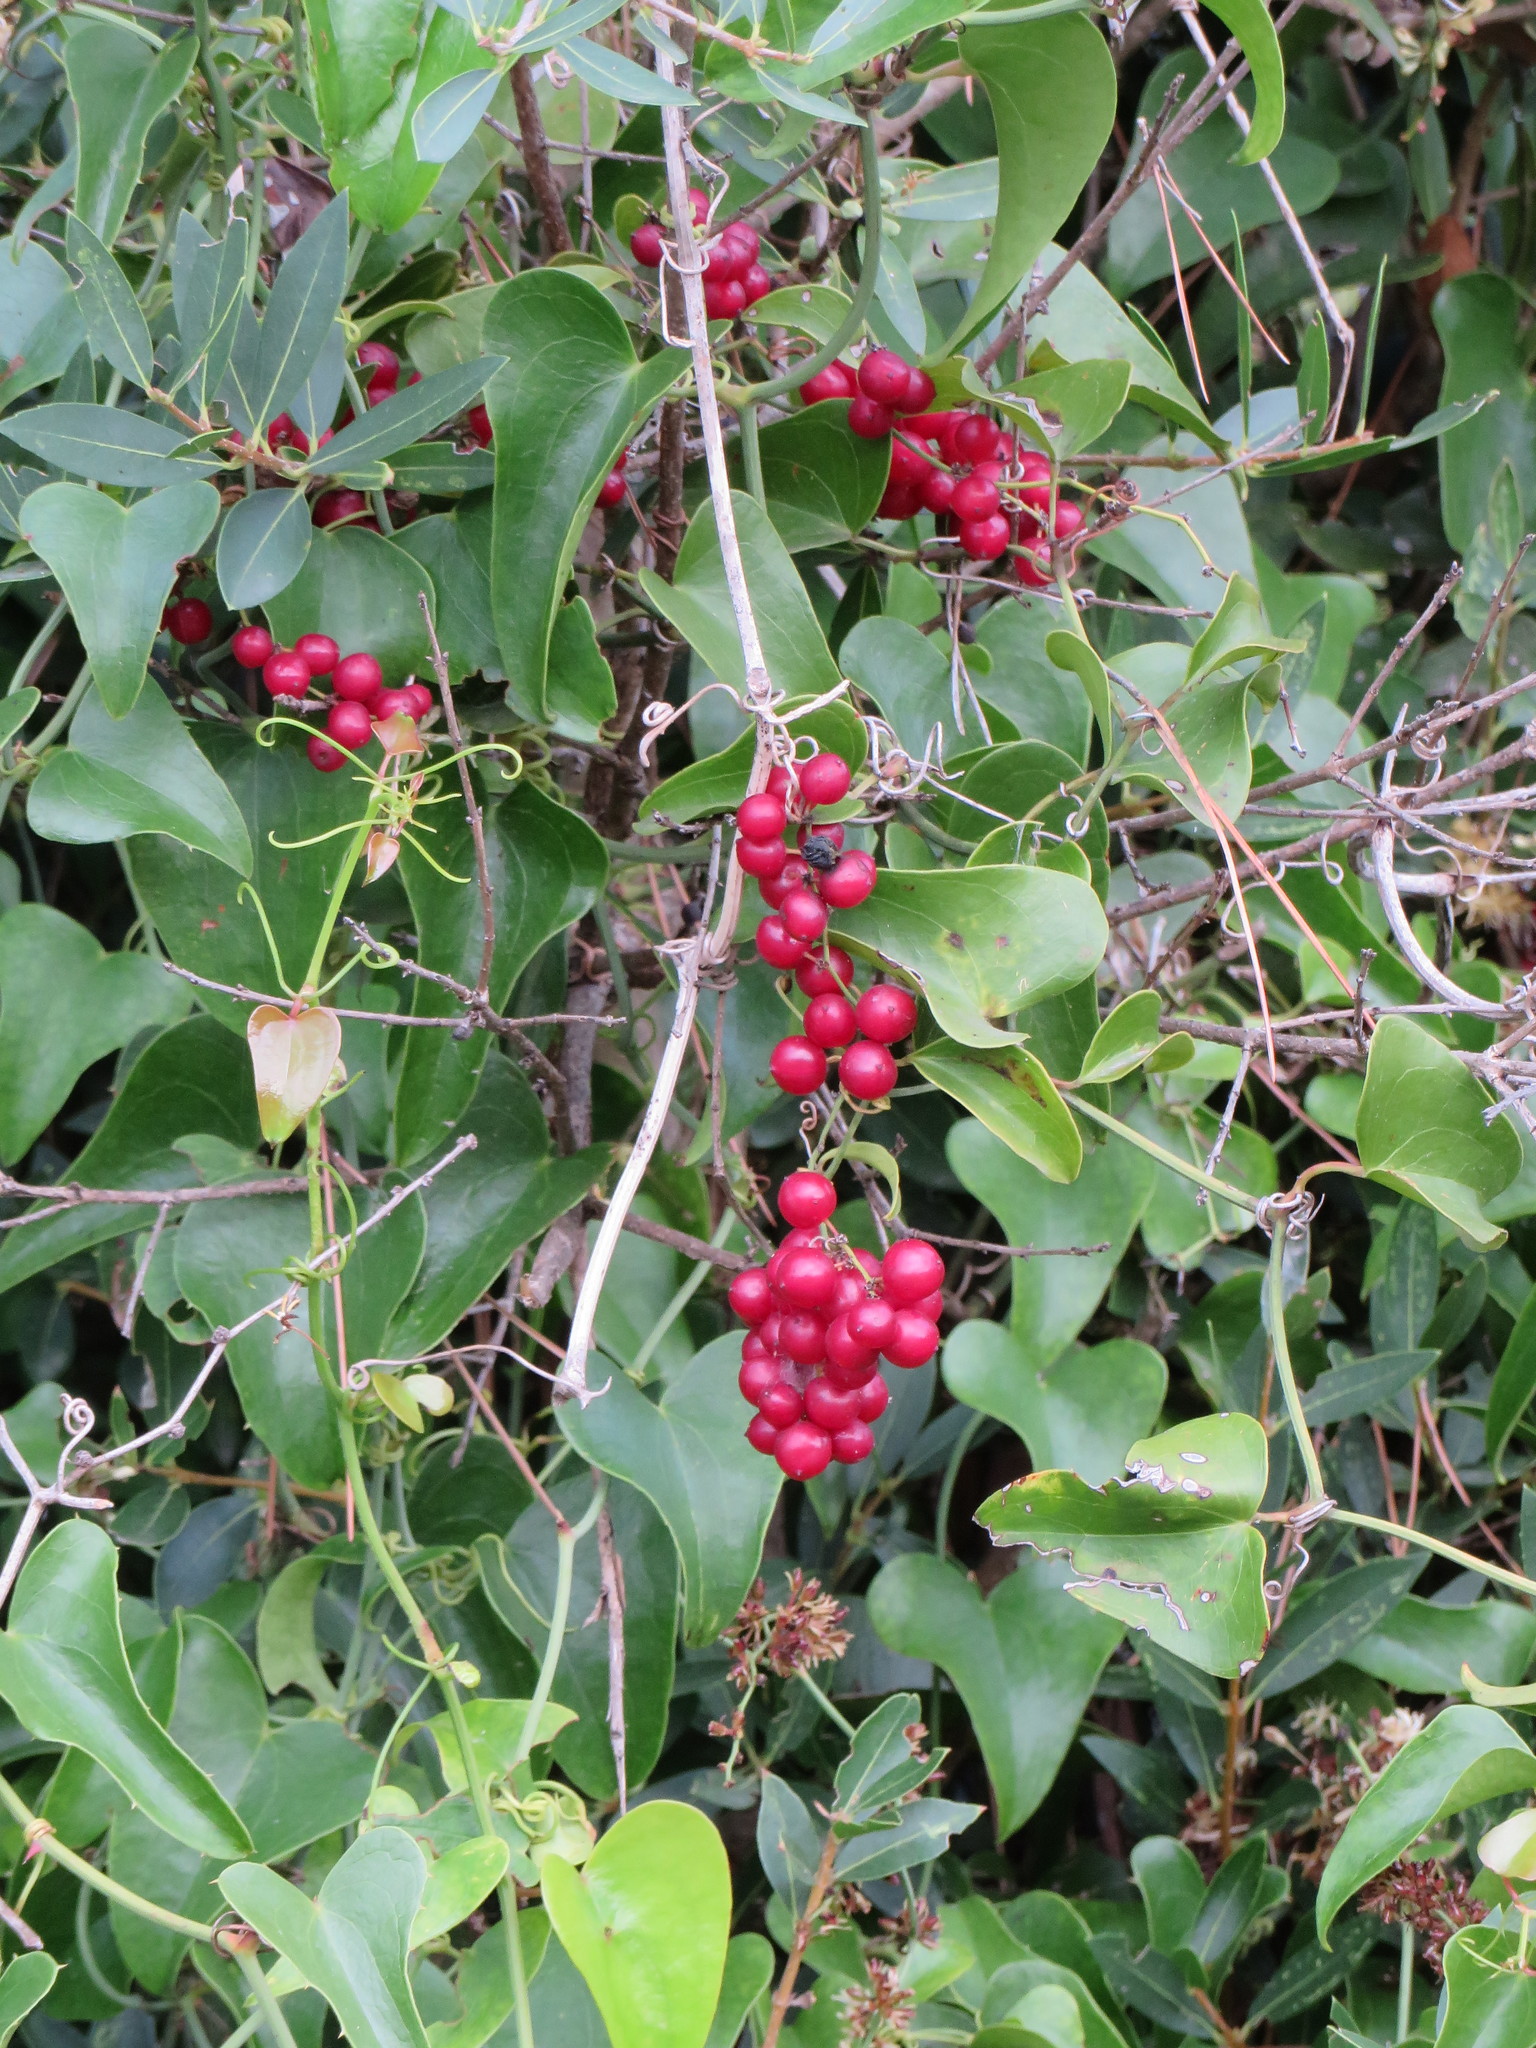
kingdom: Plantae
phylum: Tracheophyta
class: Liliopsida
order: Liliales
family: Smilacaceae
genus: Smilax
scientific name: Smilax aspera
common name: Common smilax
